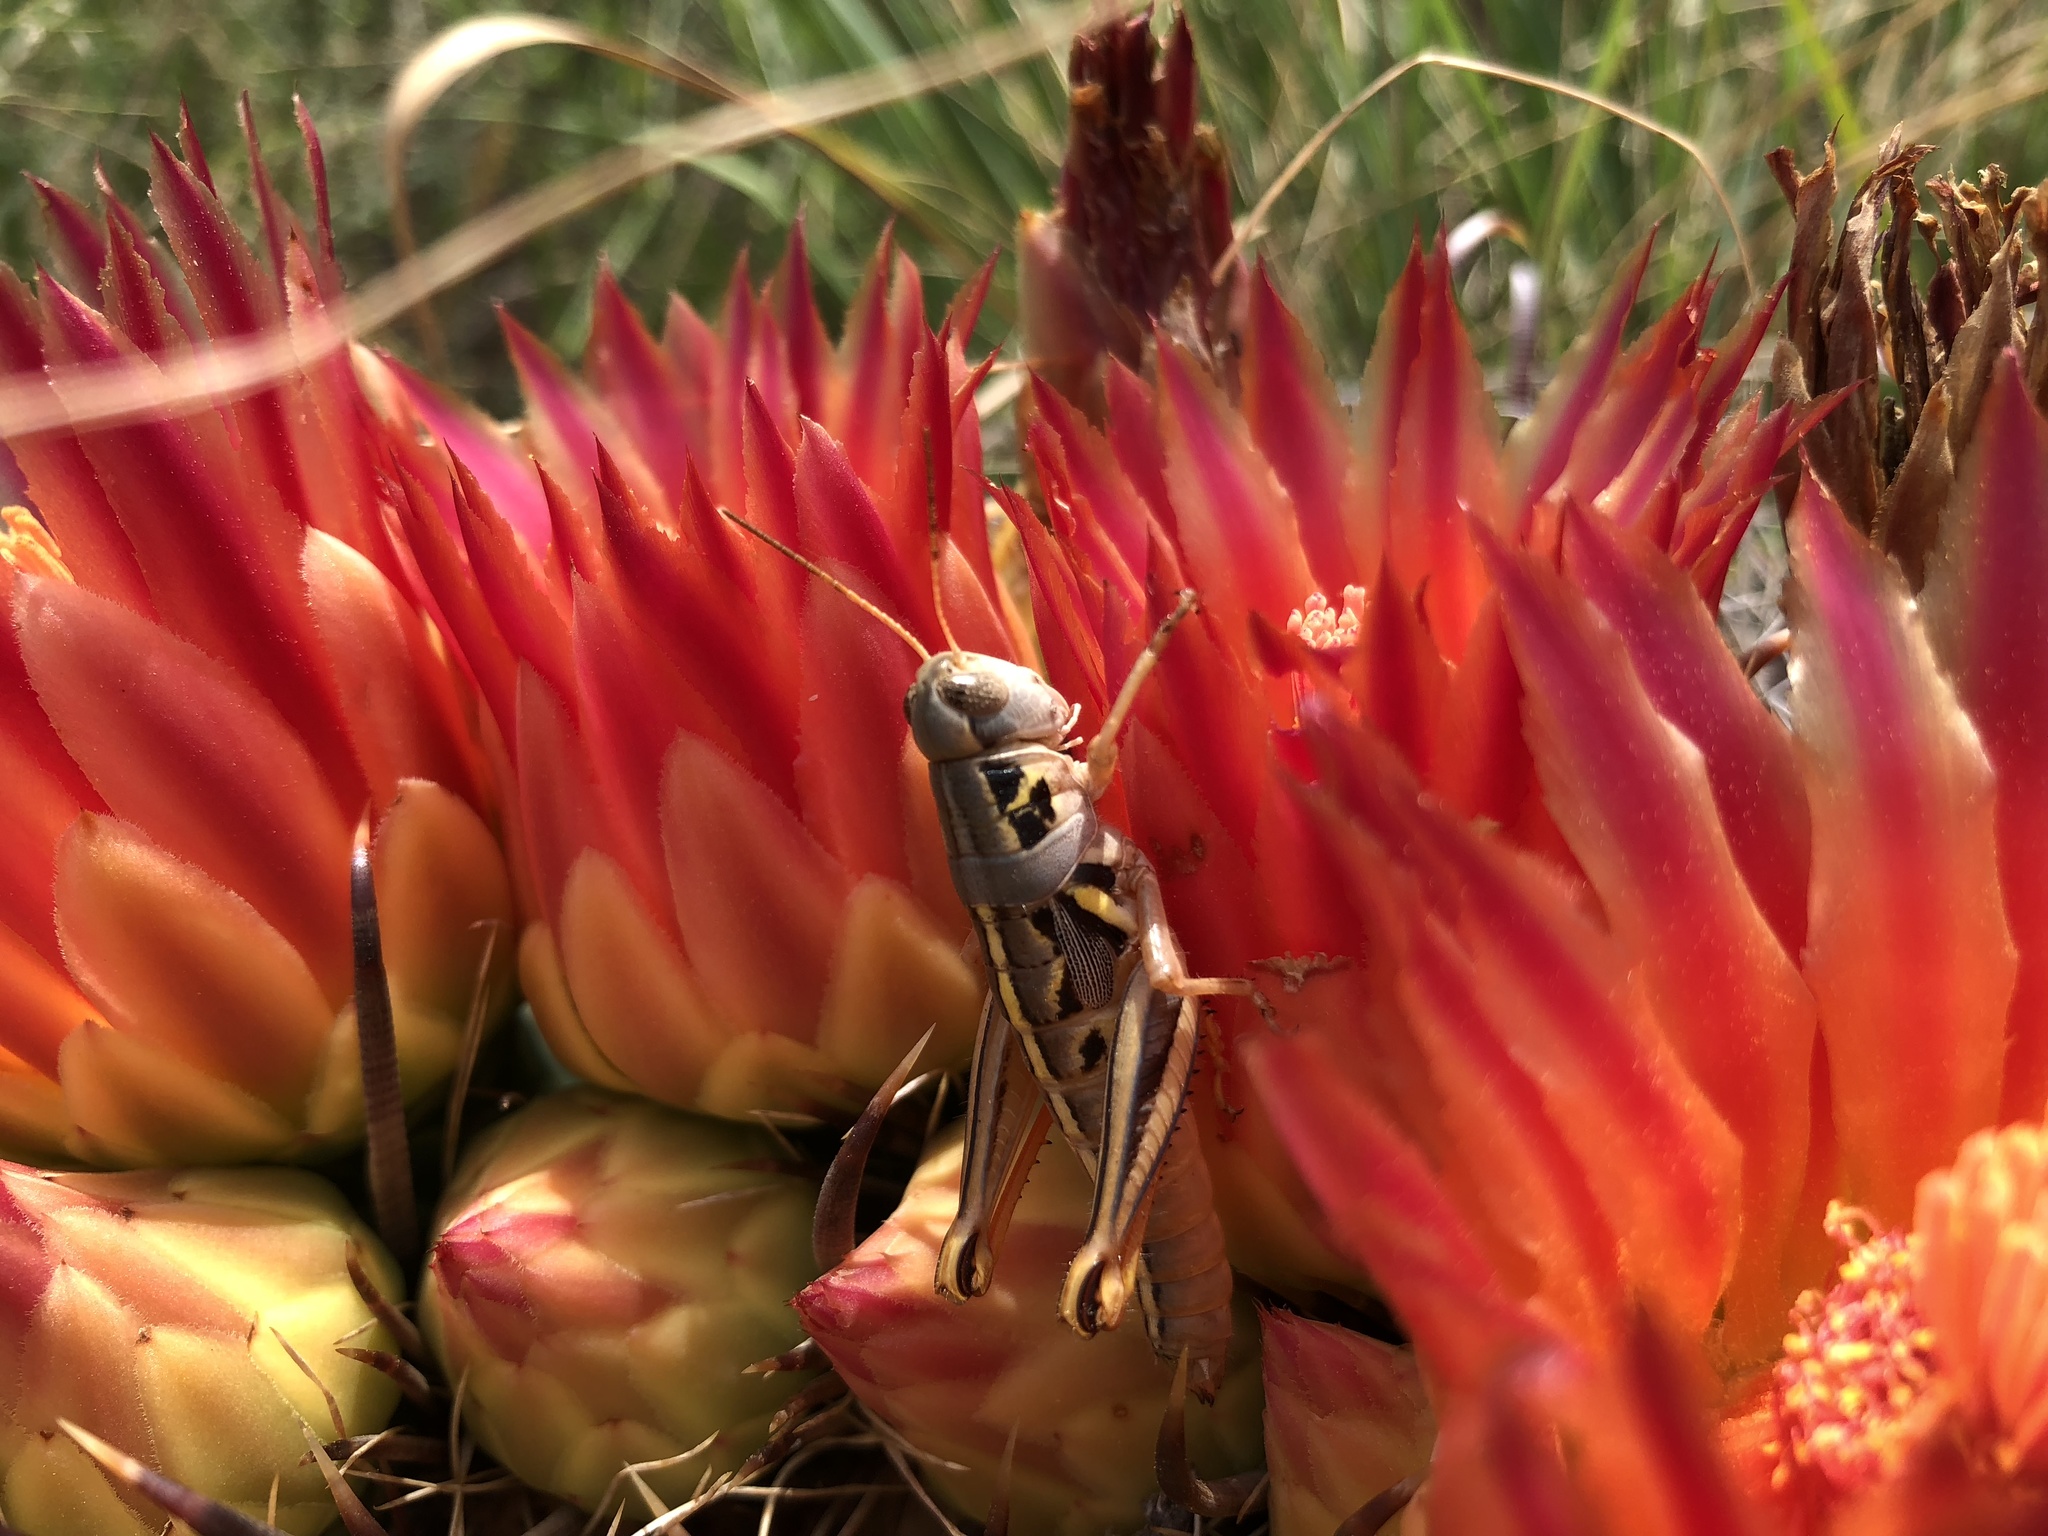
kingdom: Animalia
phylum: Arthropoda
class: Insecta
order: Orthoptera
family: Acrididae
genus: Barytettix
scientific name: Barytettix humphreysii
